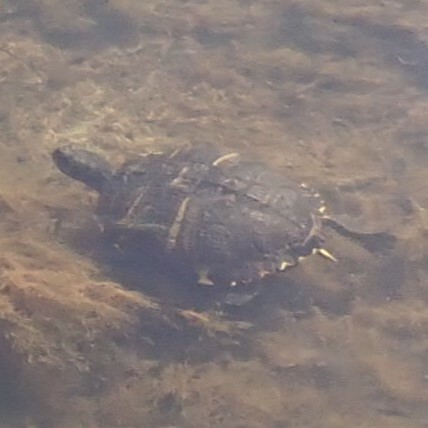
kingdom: Animalia
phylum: Chordata
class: Testudines
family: Emydidae
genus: Trachemys
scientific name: Trachemys scripta
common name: Slider
